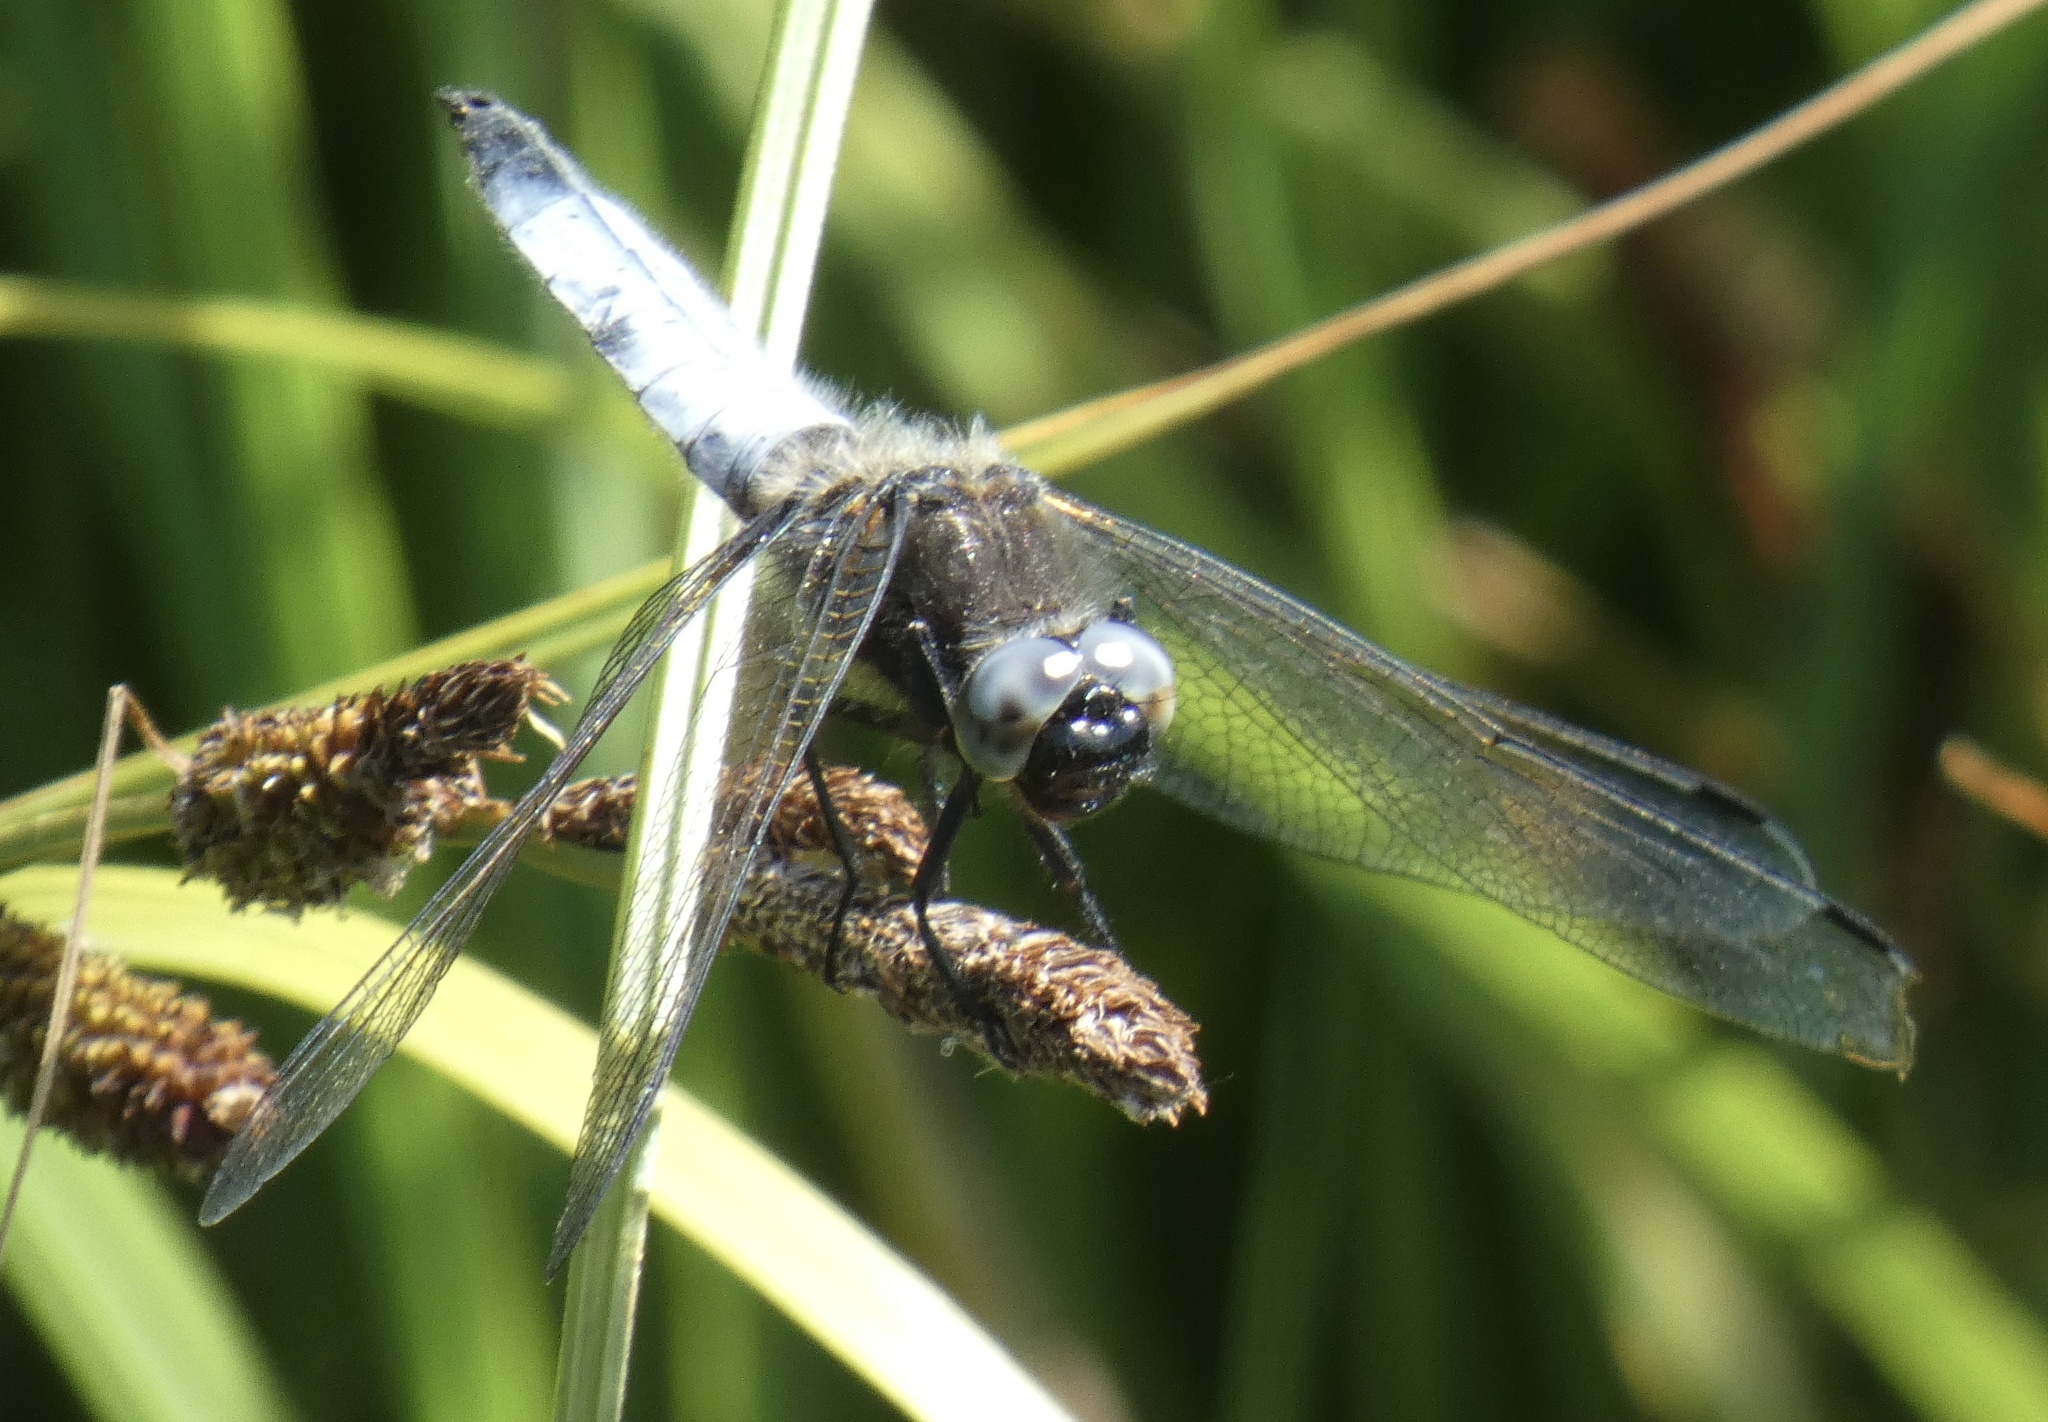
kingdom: Animalia
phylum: Arthropoda
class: Insecta
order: Odonata
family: Libellulidae
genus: Libellula
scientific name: Libellula fulva
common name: Blue chaser
